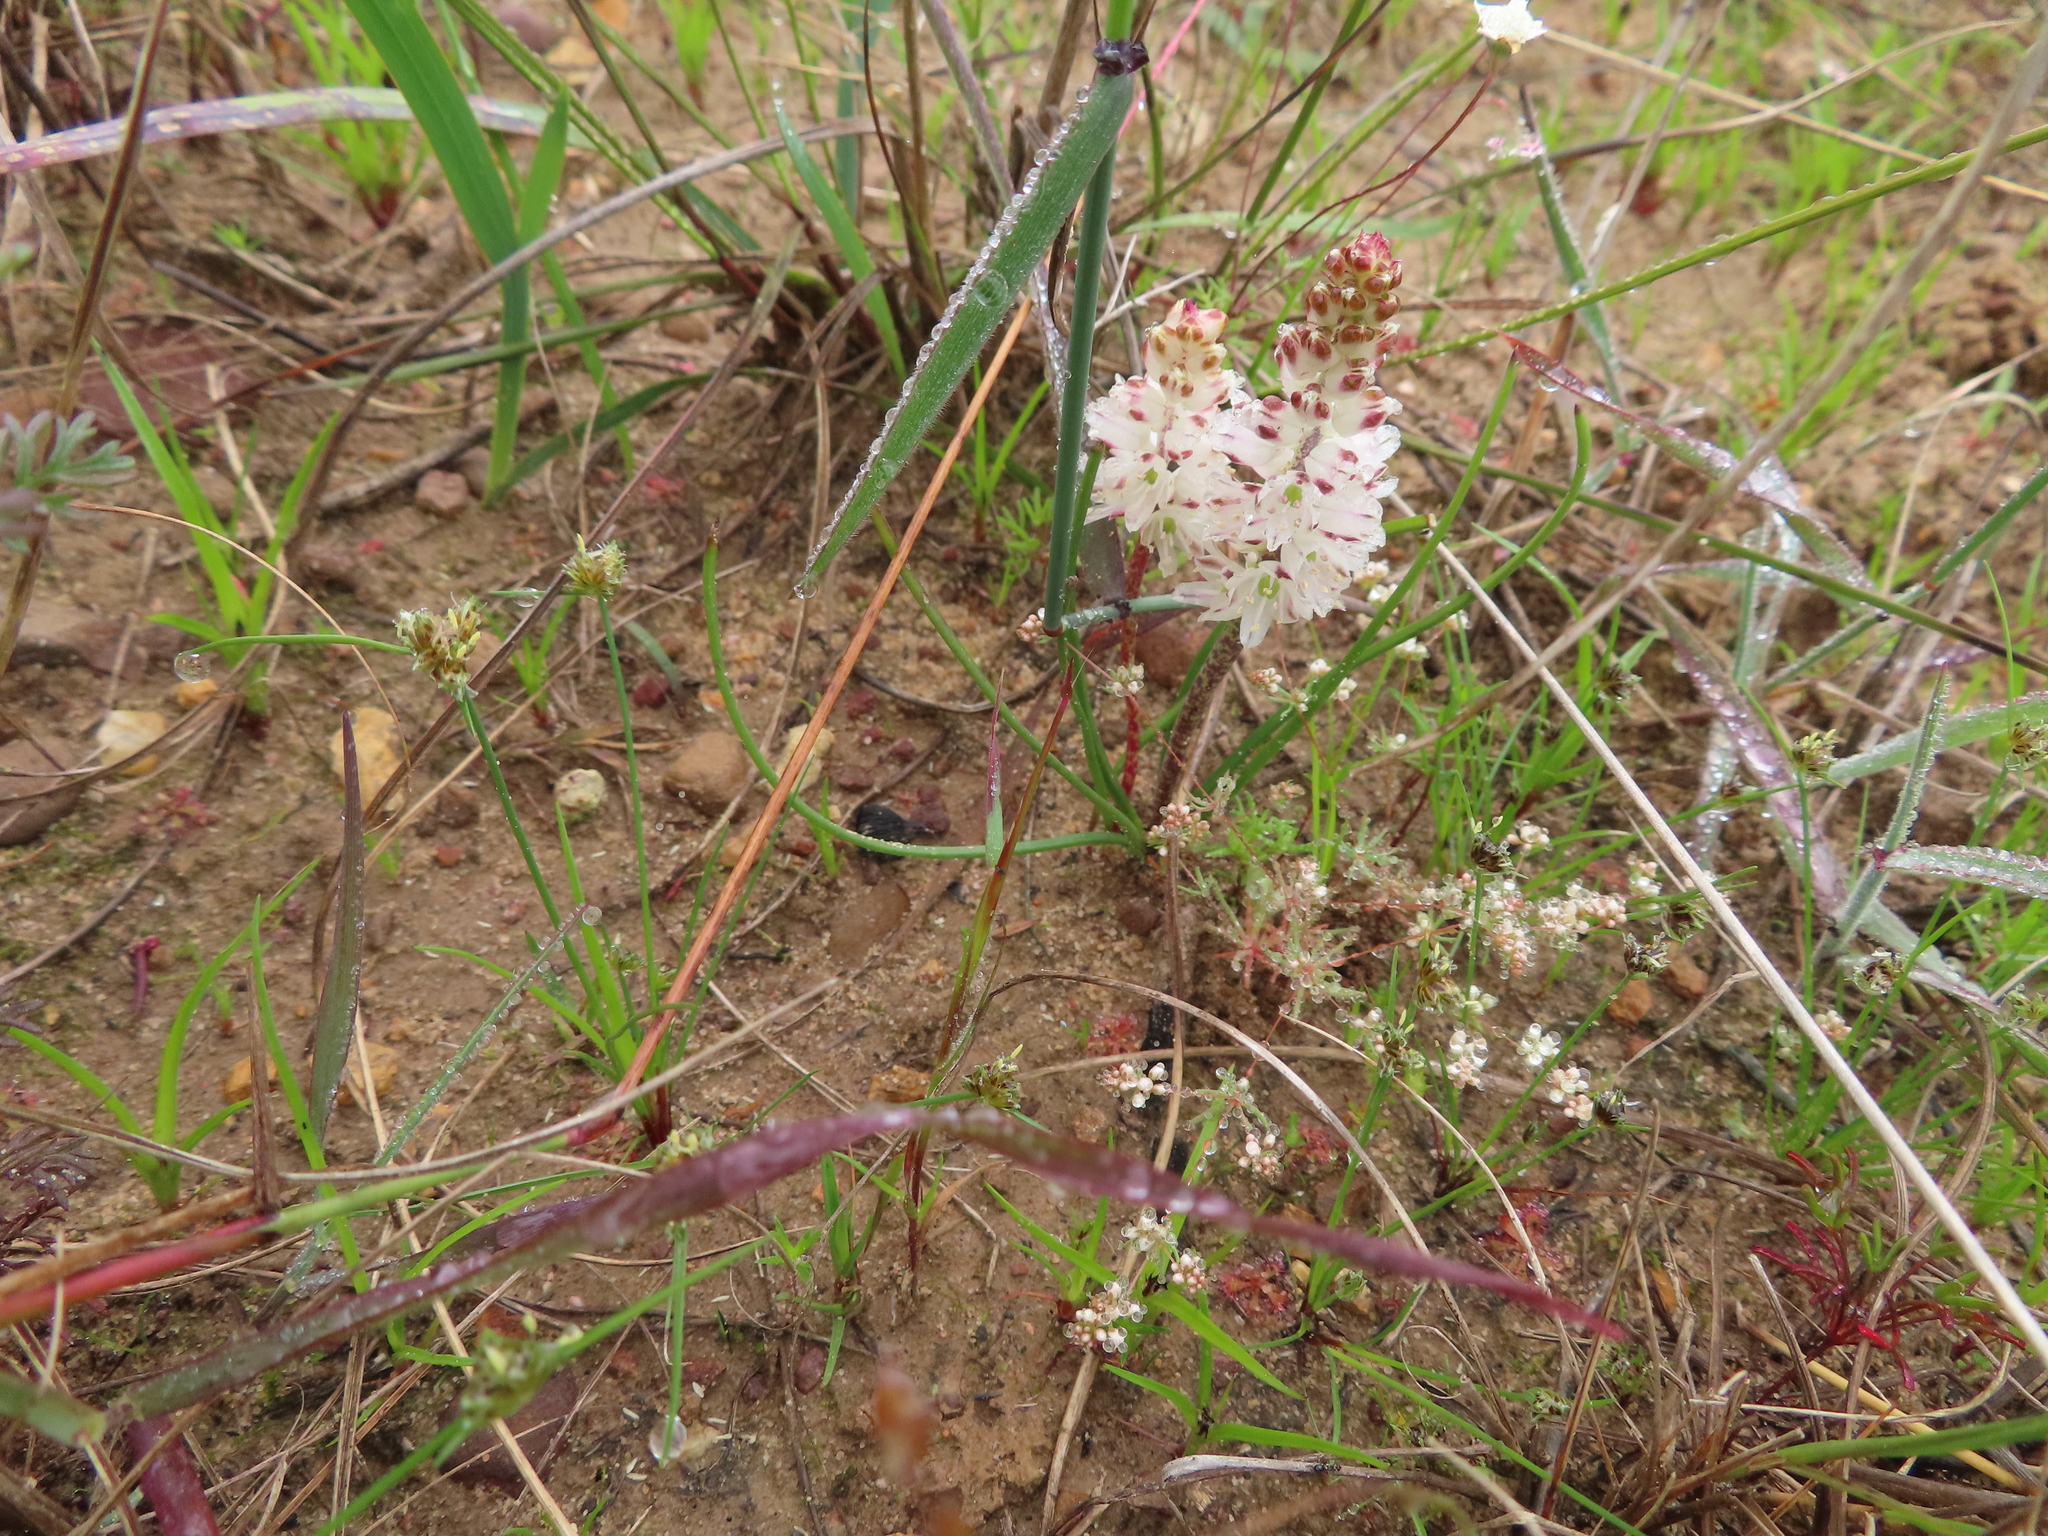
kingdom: Plantae
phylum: Tracheophyta
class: Liliopsida
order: Asparagales
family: Asparagaceae
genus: Lachenalia
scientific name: Lachenalia contaminata
